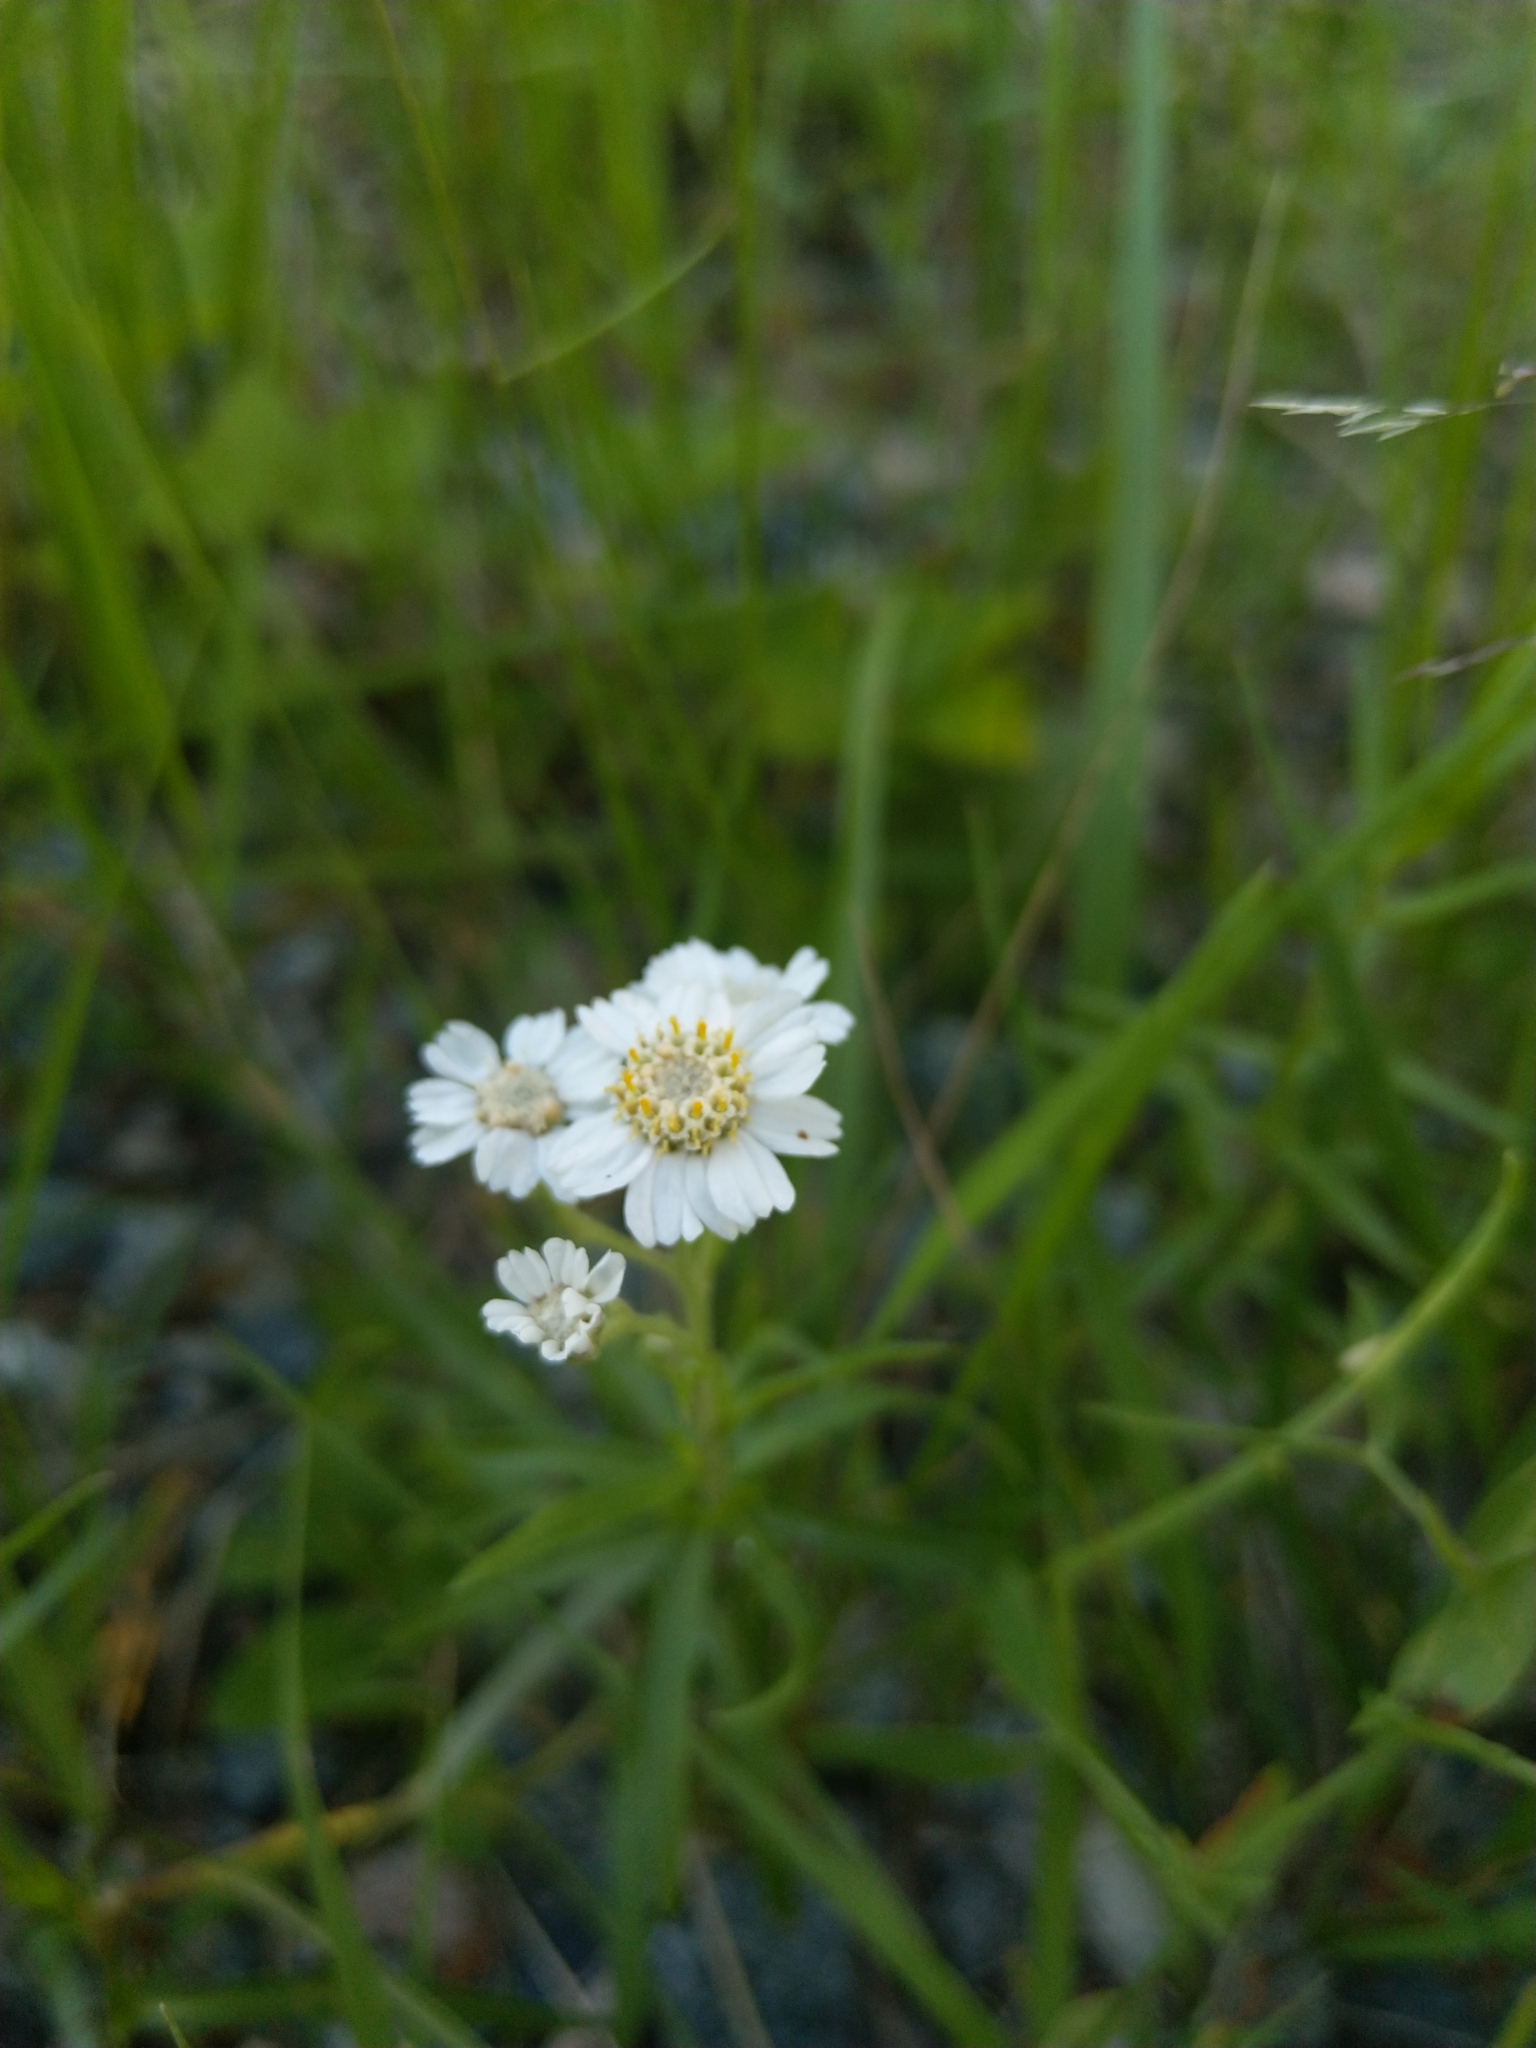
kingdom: Plantae
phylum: Tracheophyta
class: Magnoliopsida
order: Asterales
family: Asteraceae
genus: Achillea
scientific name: Achillea ptarmica
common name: Sneezeweed
